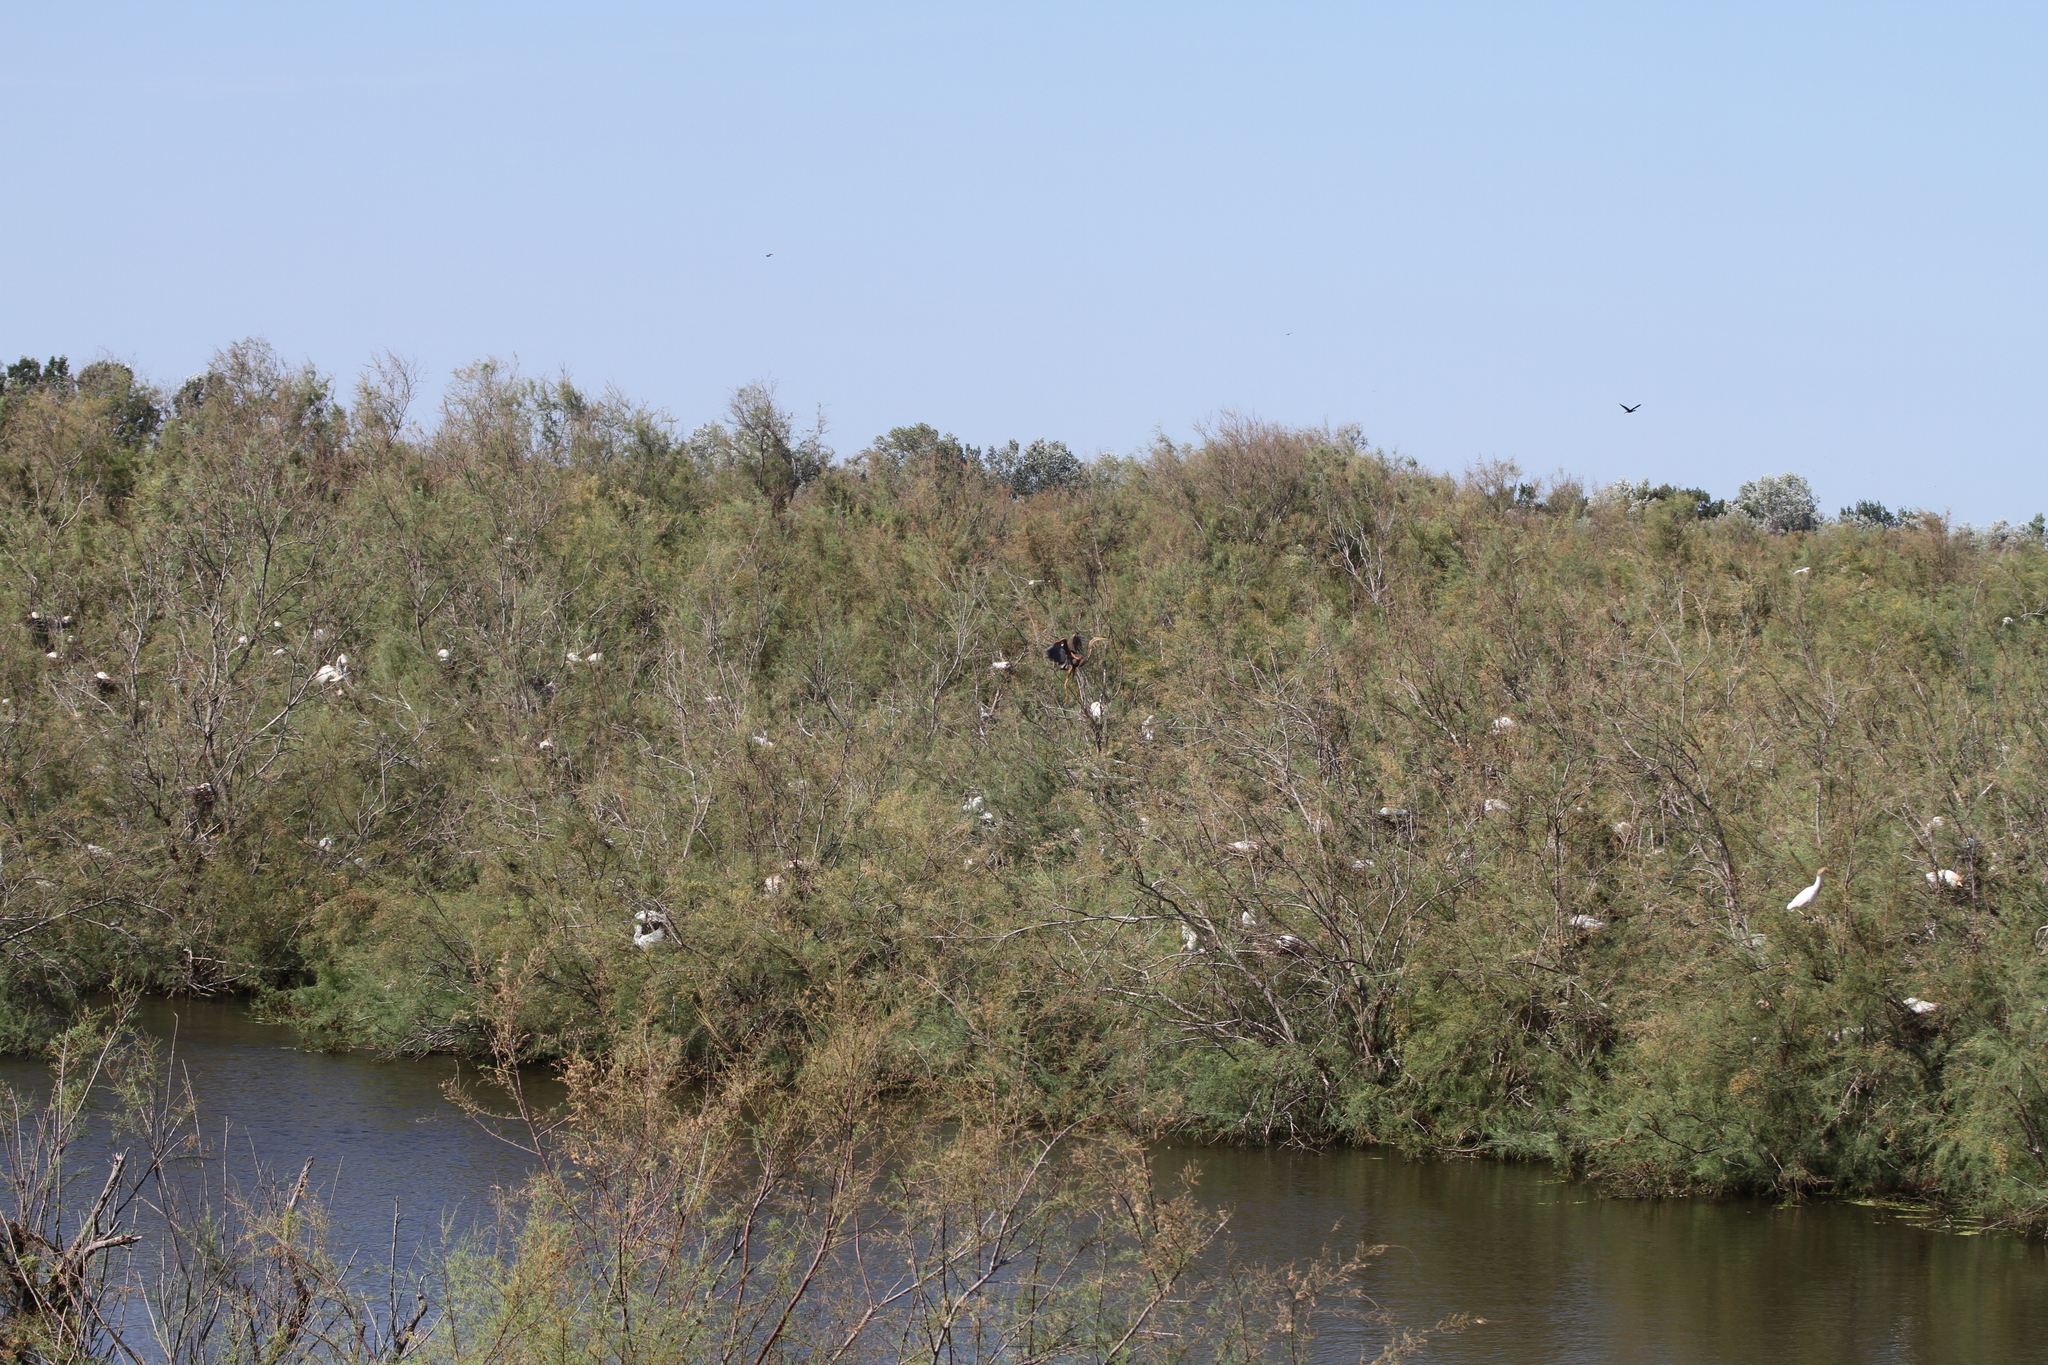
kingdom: Animalia
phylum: Chordata
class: Aves
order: Pelecaniformes
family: Ardeidae
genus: Ardea
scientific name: Ardea purpurea
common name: Purple heron
